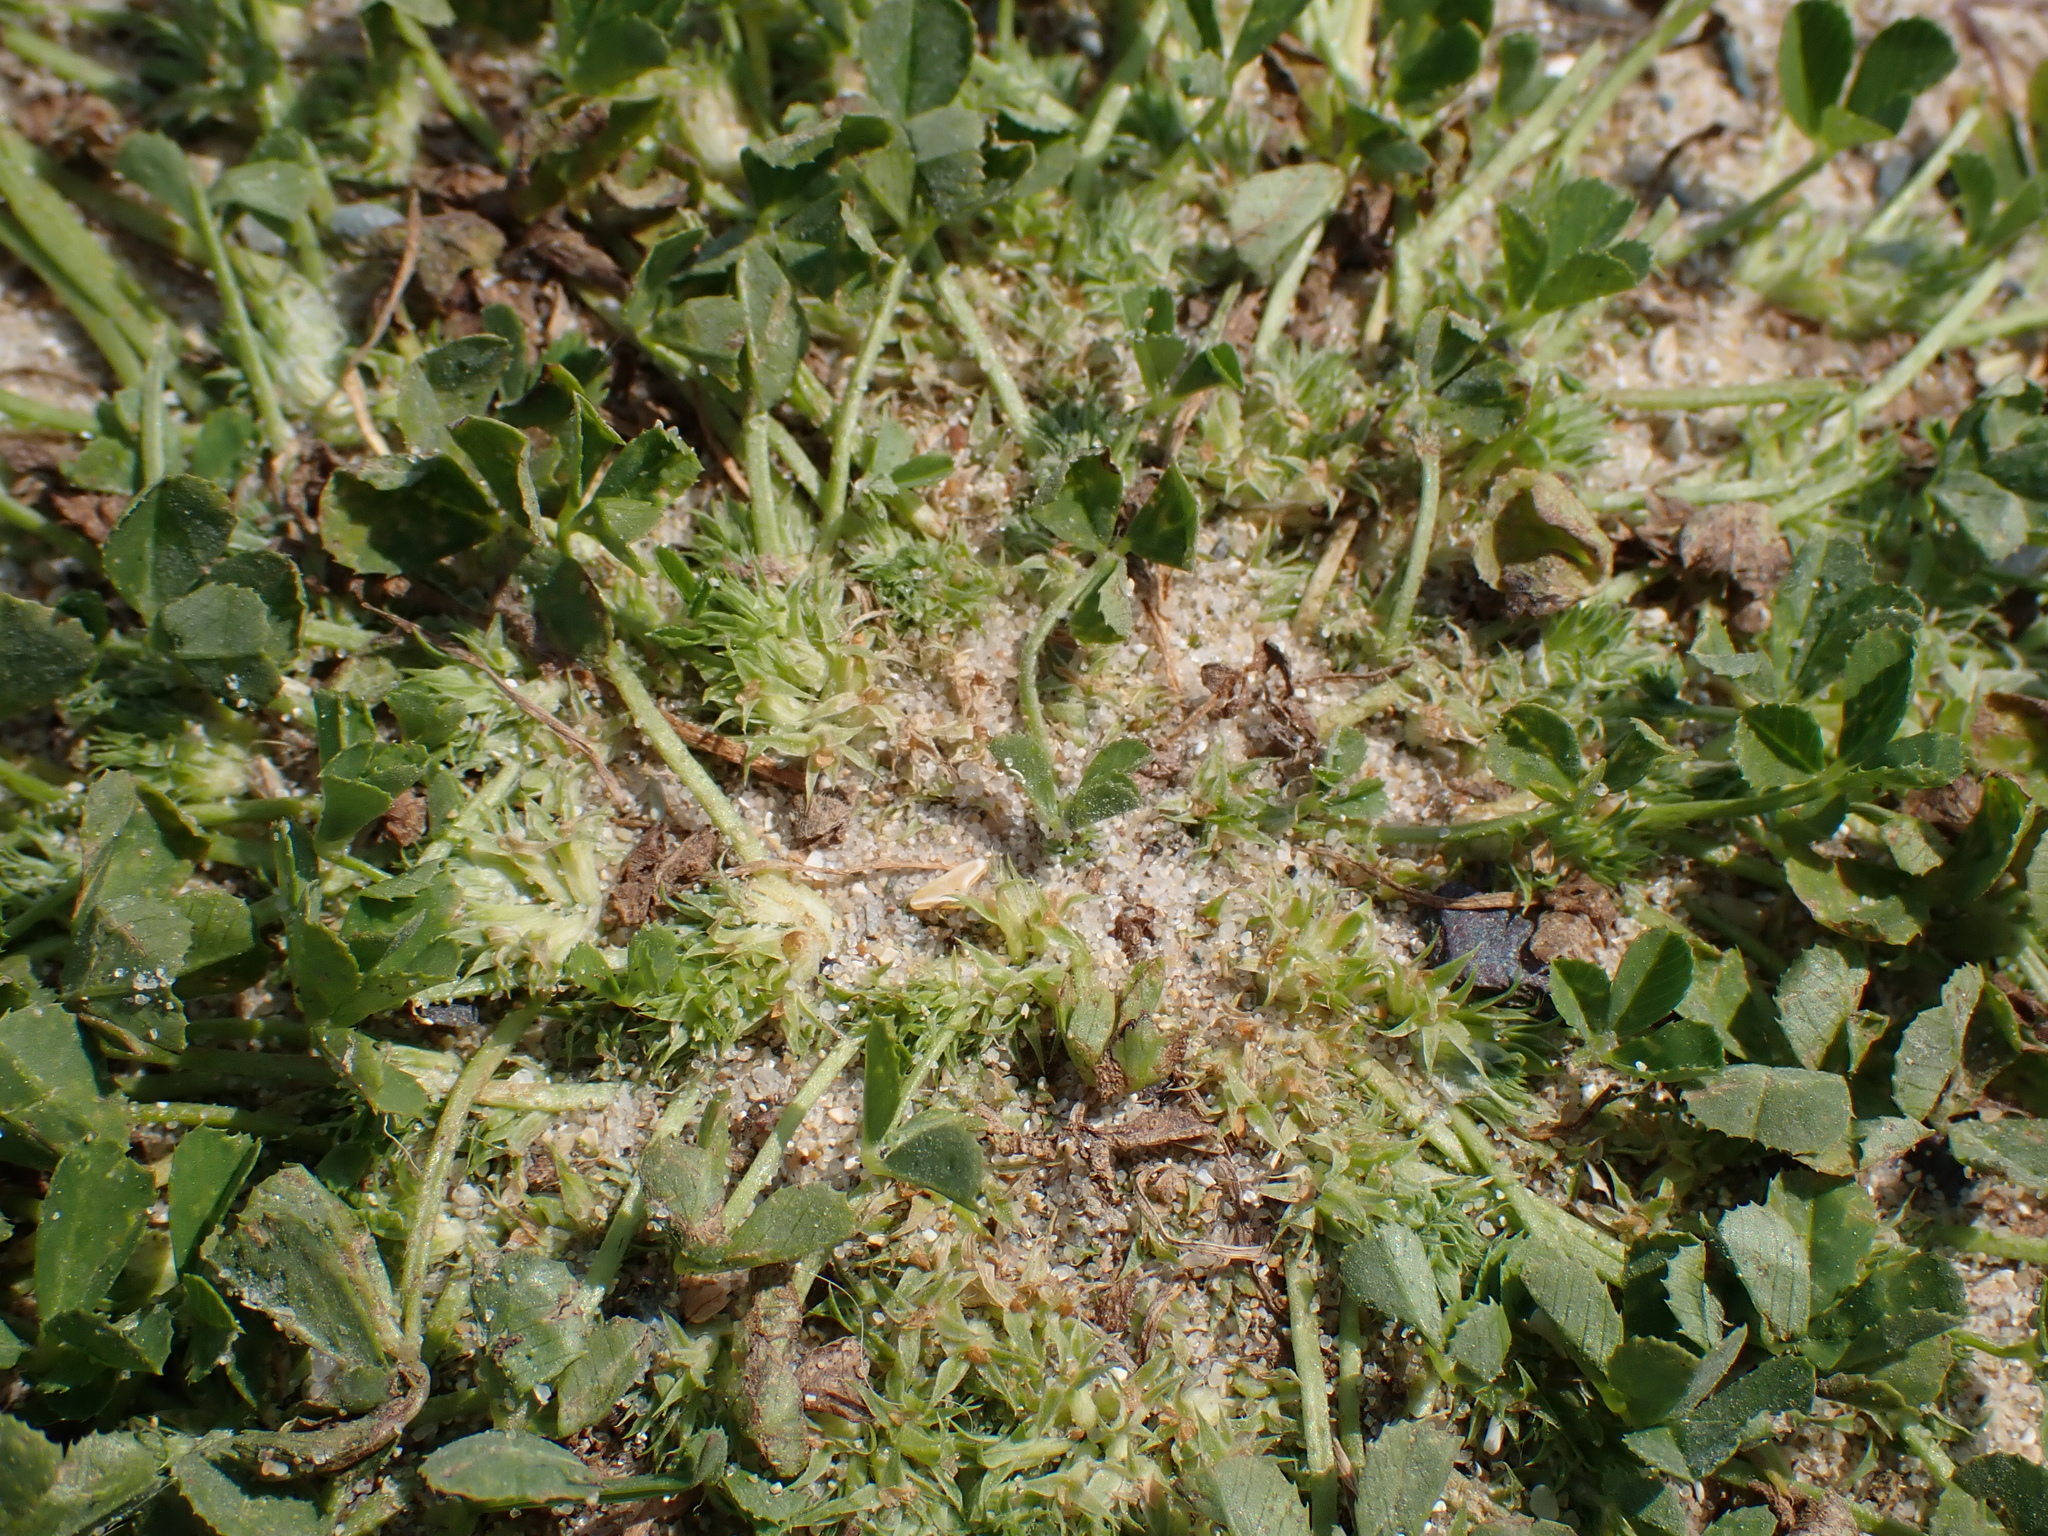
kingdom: Plantae
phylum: Tracheophyta
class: Magnoliopsida
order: Fabales
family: Fabaceae
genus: Trifolium
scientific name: Trifolium suffocatum
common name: Suffocated clover
